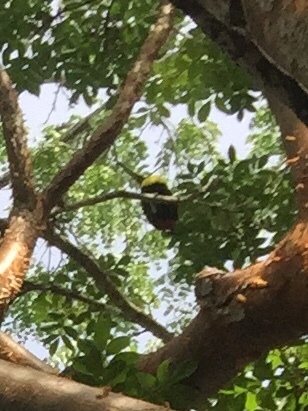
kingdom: Animalia
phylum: Chordata
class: Aves
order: Piciformes
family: Ramphastidae
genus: Ramphastos
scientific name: Ramphastos sulfuratus
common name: Keel-billed toucan
